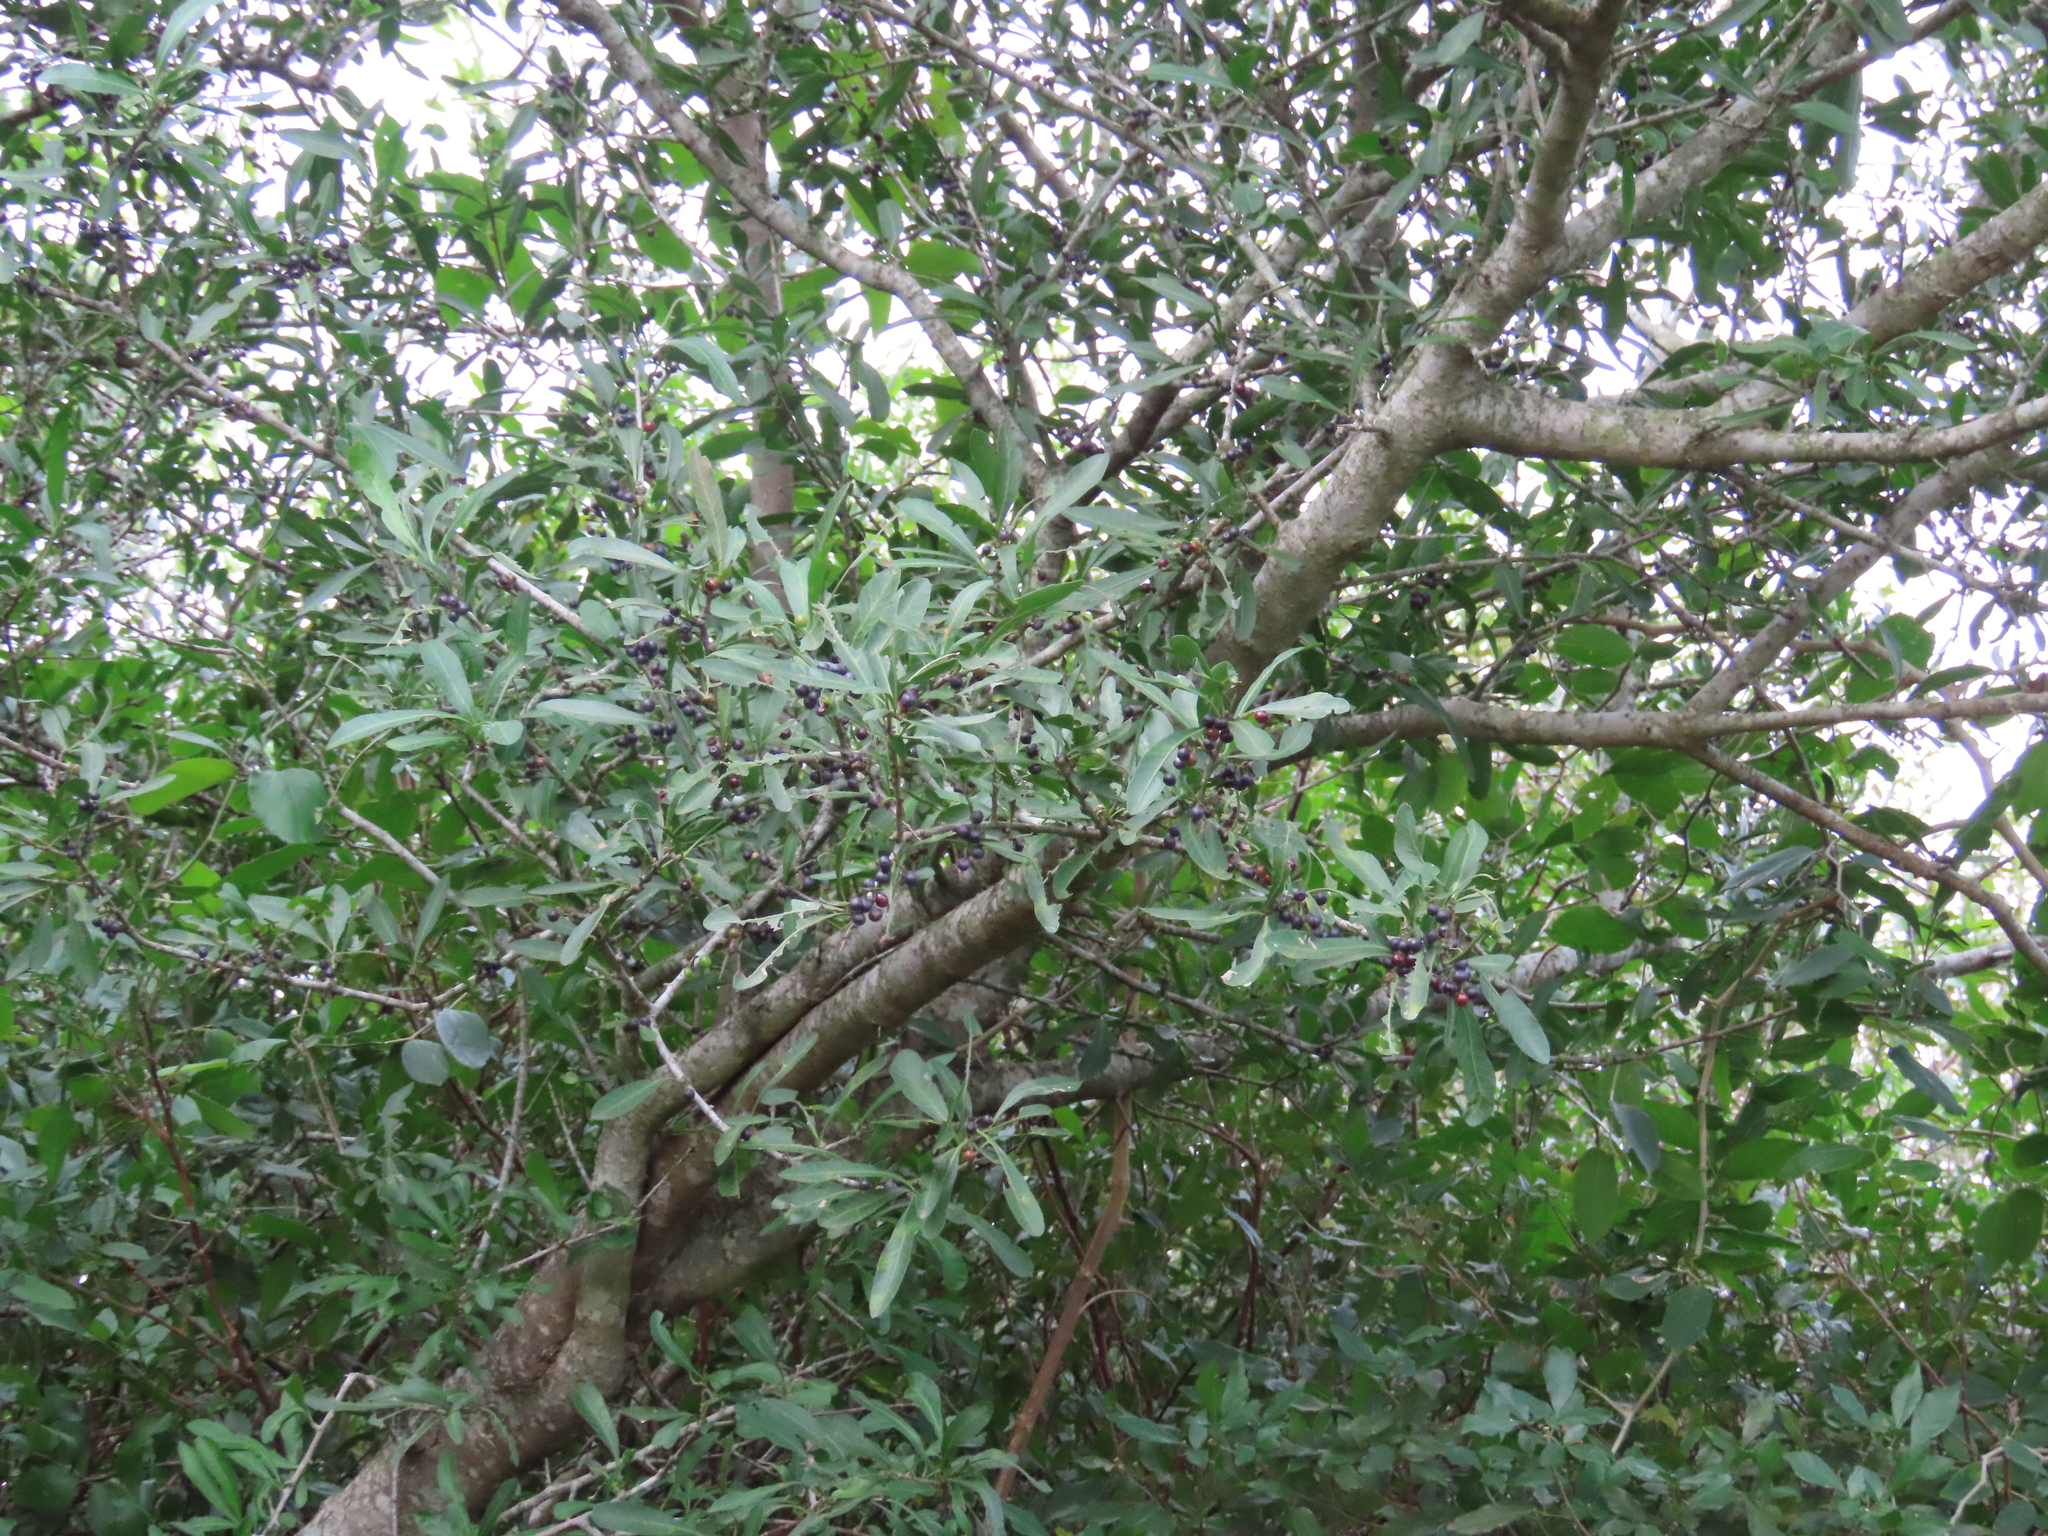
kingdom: Plantae
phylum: Tracheophyta
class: Magnoliopsida
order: Sapindales
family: Anacardiaceae
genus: Schinus
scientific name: Schinus longifolia
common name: Longleaf peppertree
